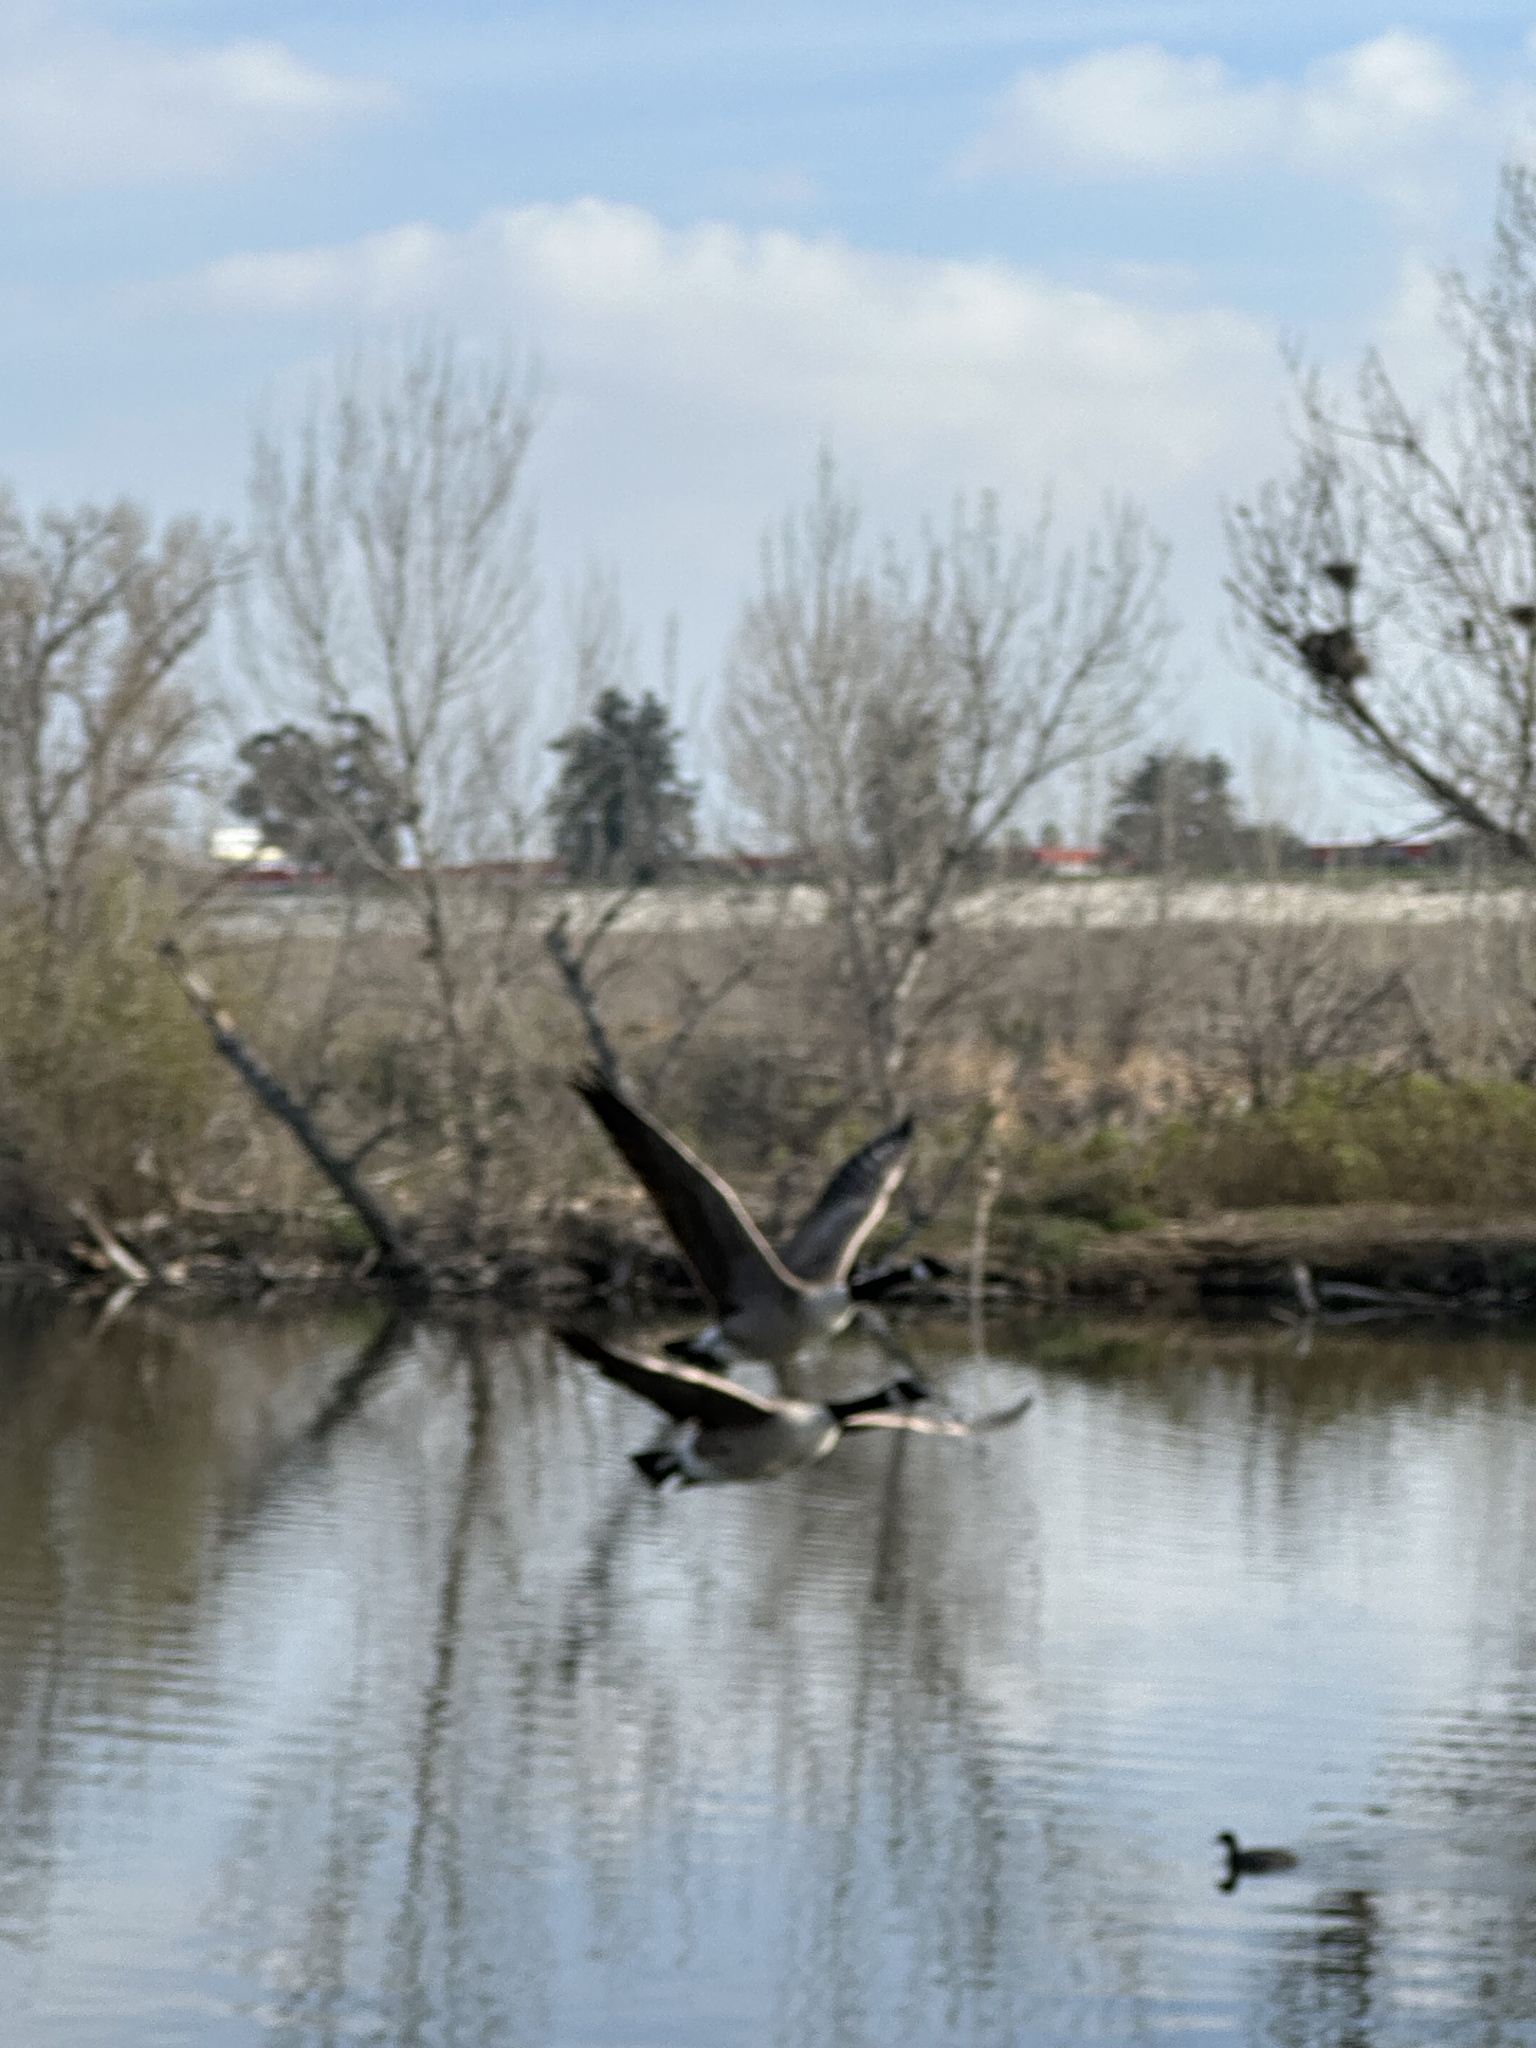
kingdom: Animalia
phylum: Chordata
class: Aves
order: Anseriformes
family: Anatidae
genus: Branta
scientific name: Branta canadensis
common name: Canada goose
